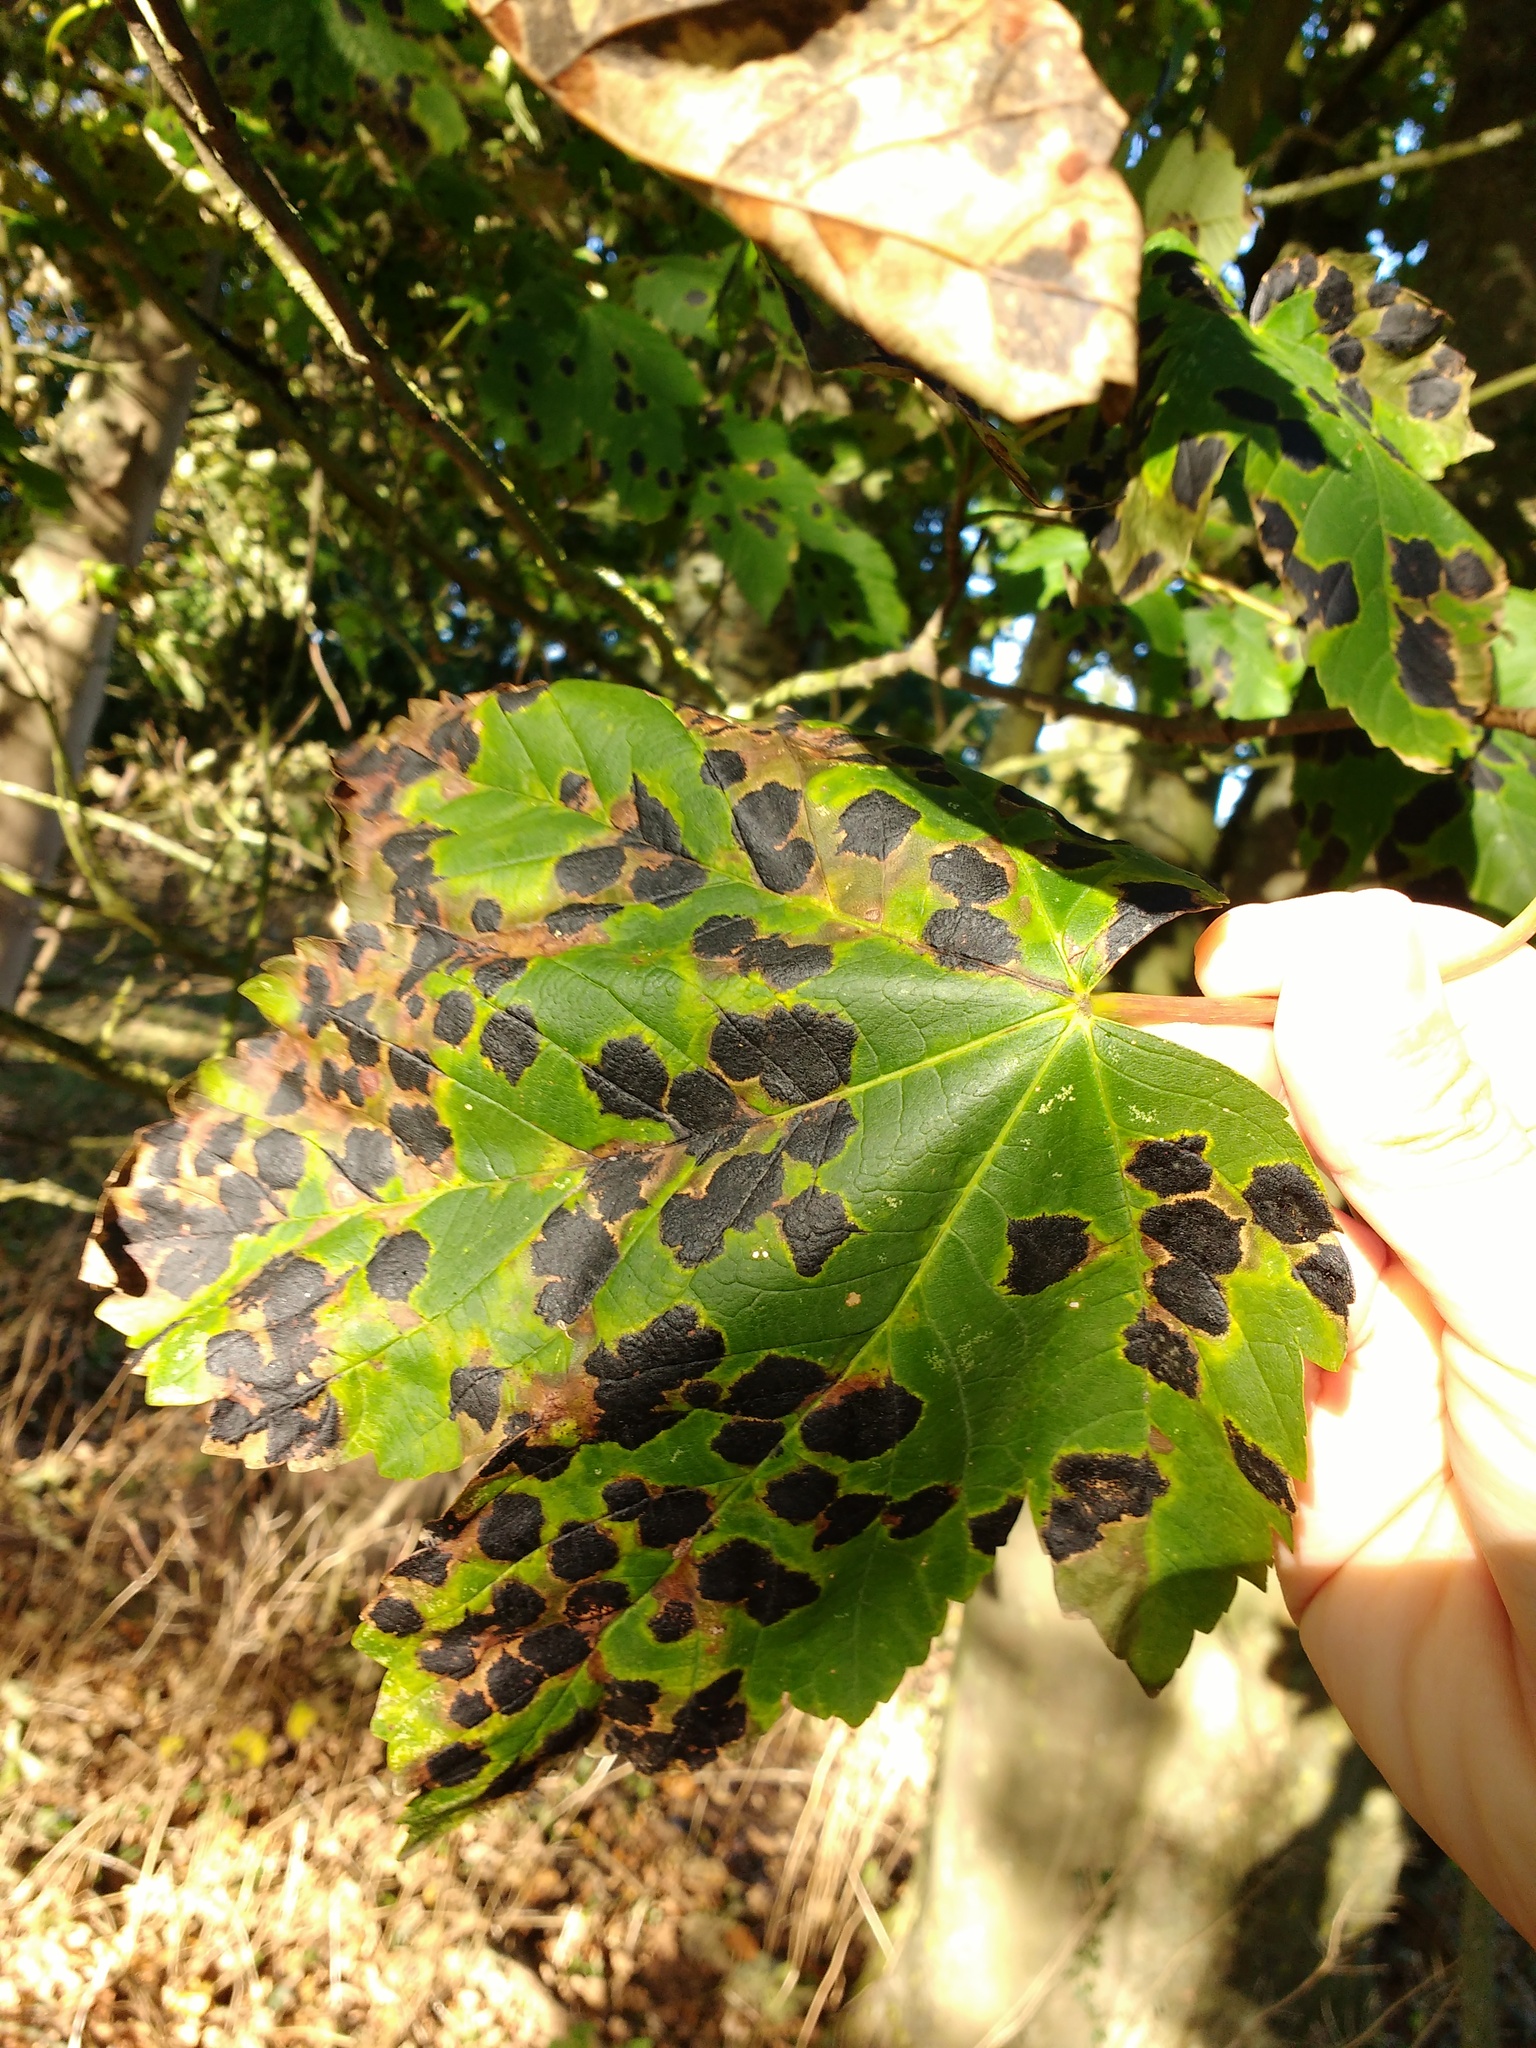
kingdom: Fungi
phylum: Ascomycota
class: Leotiomycetes
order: Rhytismatales
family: Rhytismataceae
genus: Rhytisma
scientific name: Rhytisma acerinum
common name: European tar spot
